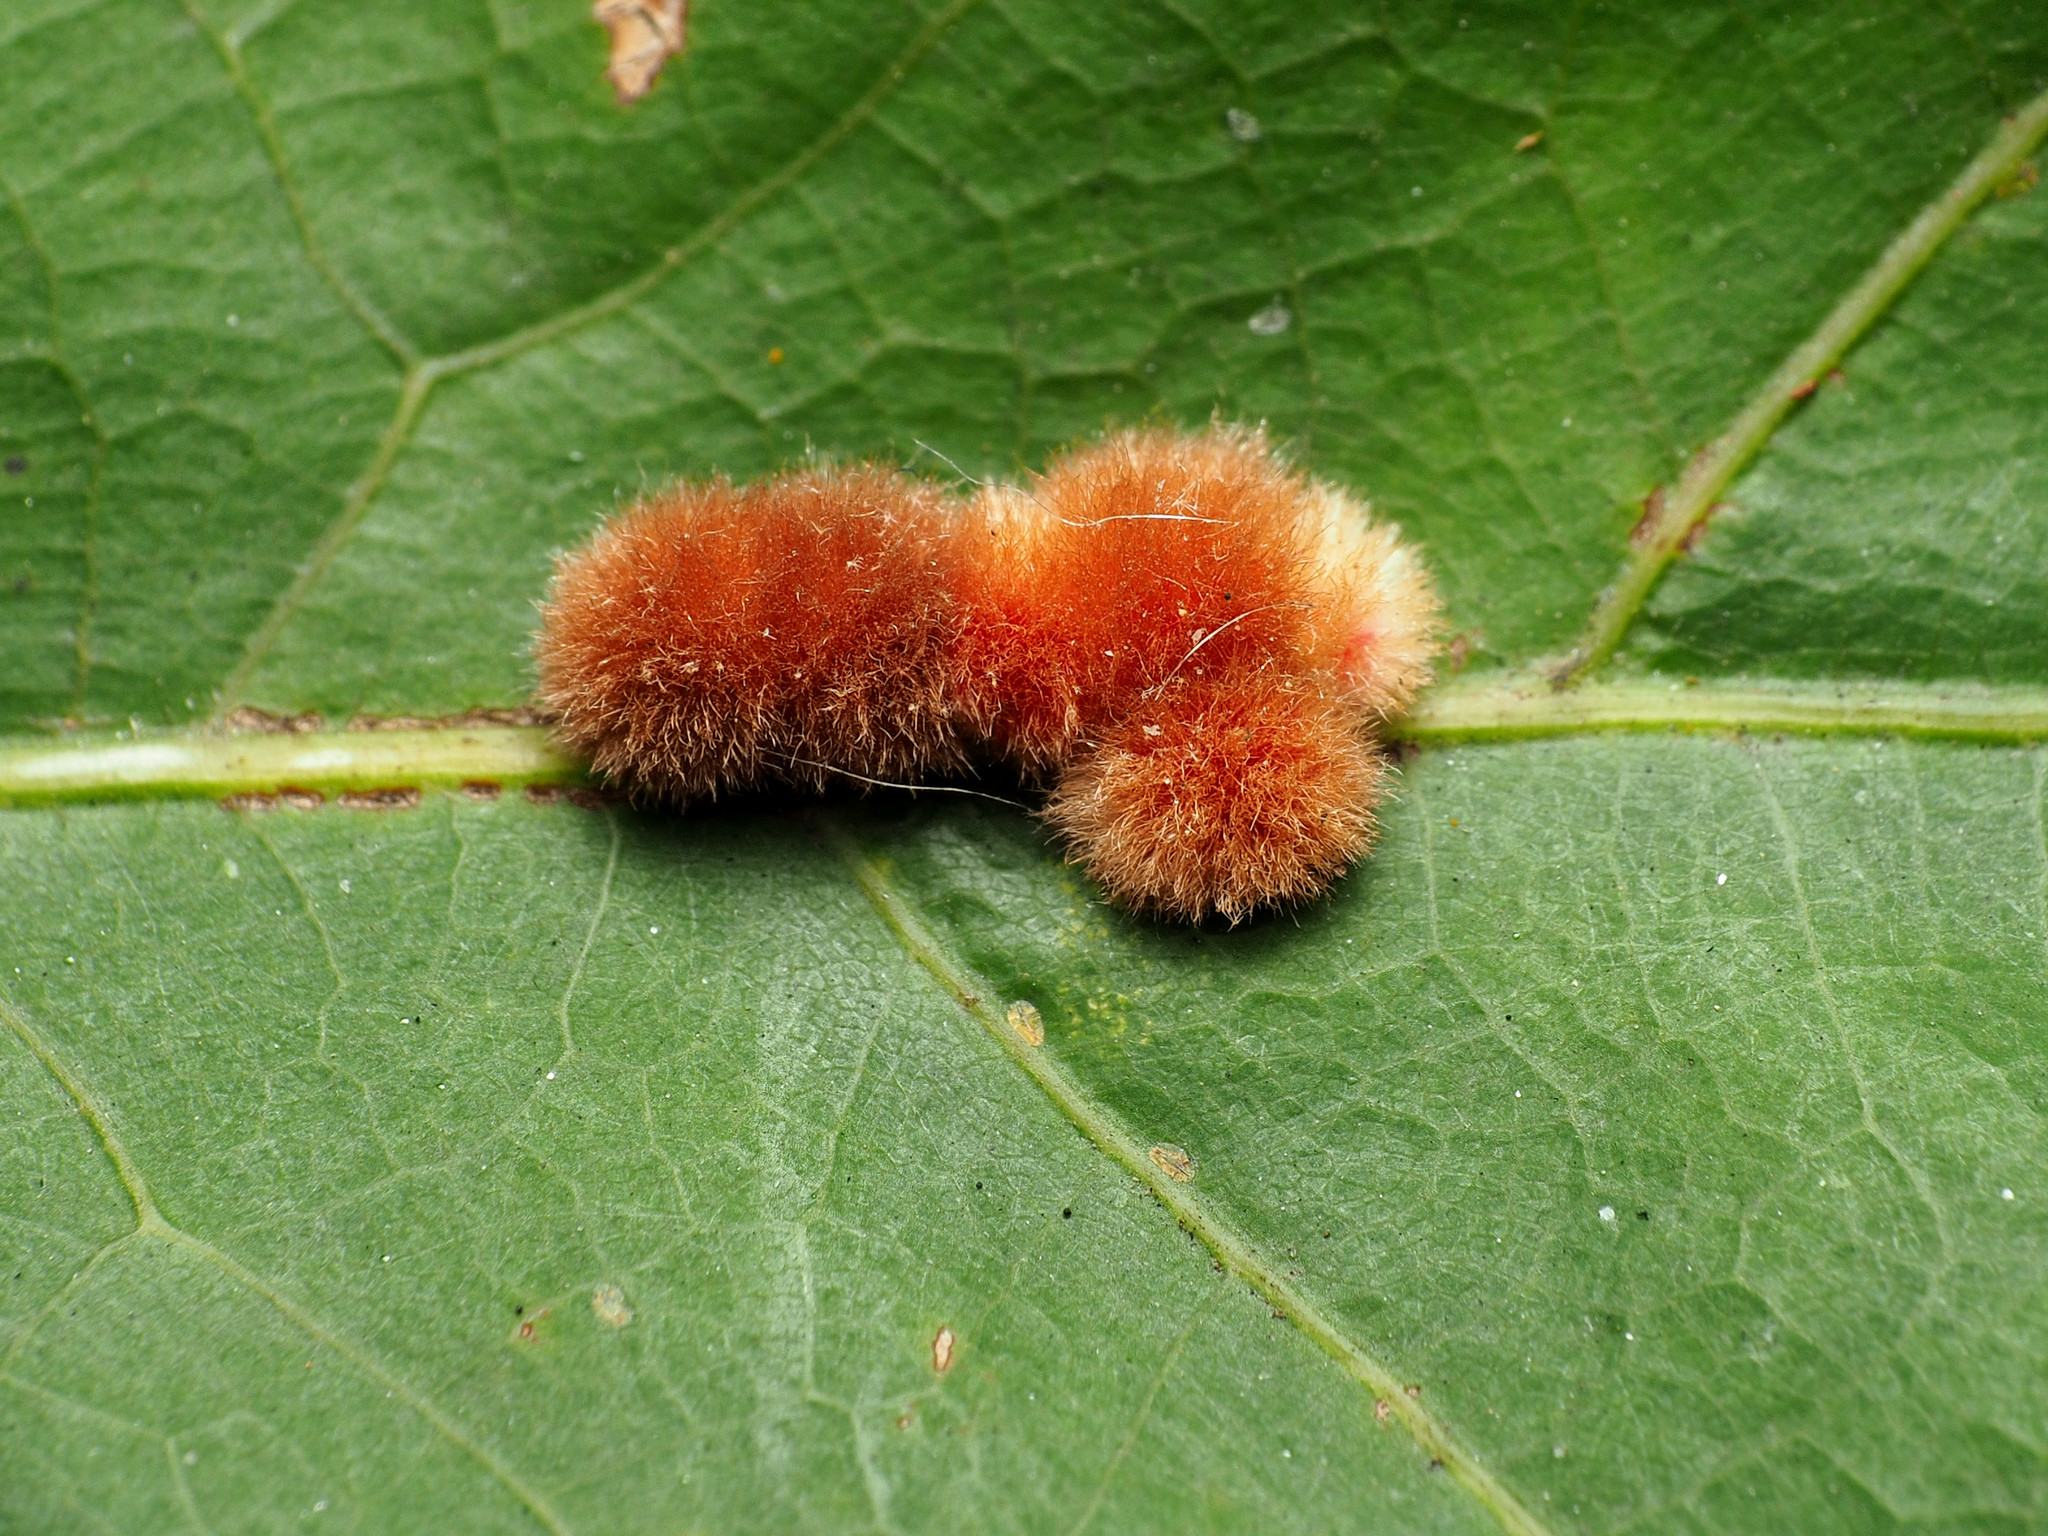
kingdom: Animalia
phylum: Arthropoda
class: Insecta
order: Hymenoptera
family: Cynipidae
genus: Callirhytis
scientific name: Callirhytis
